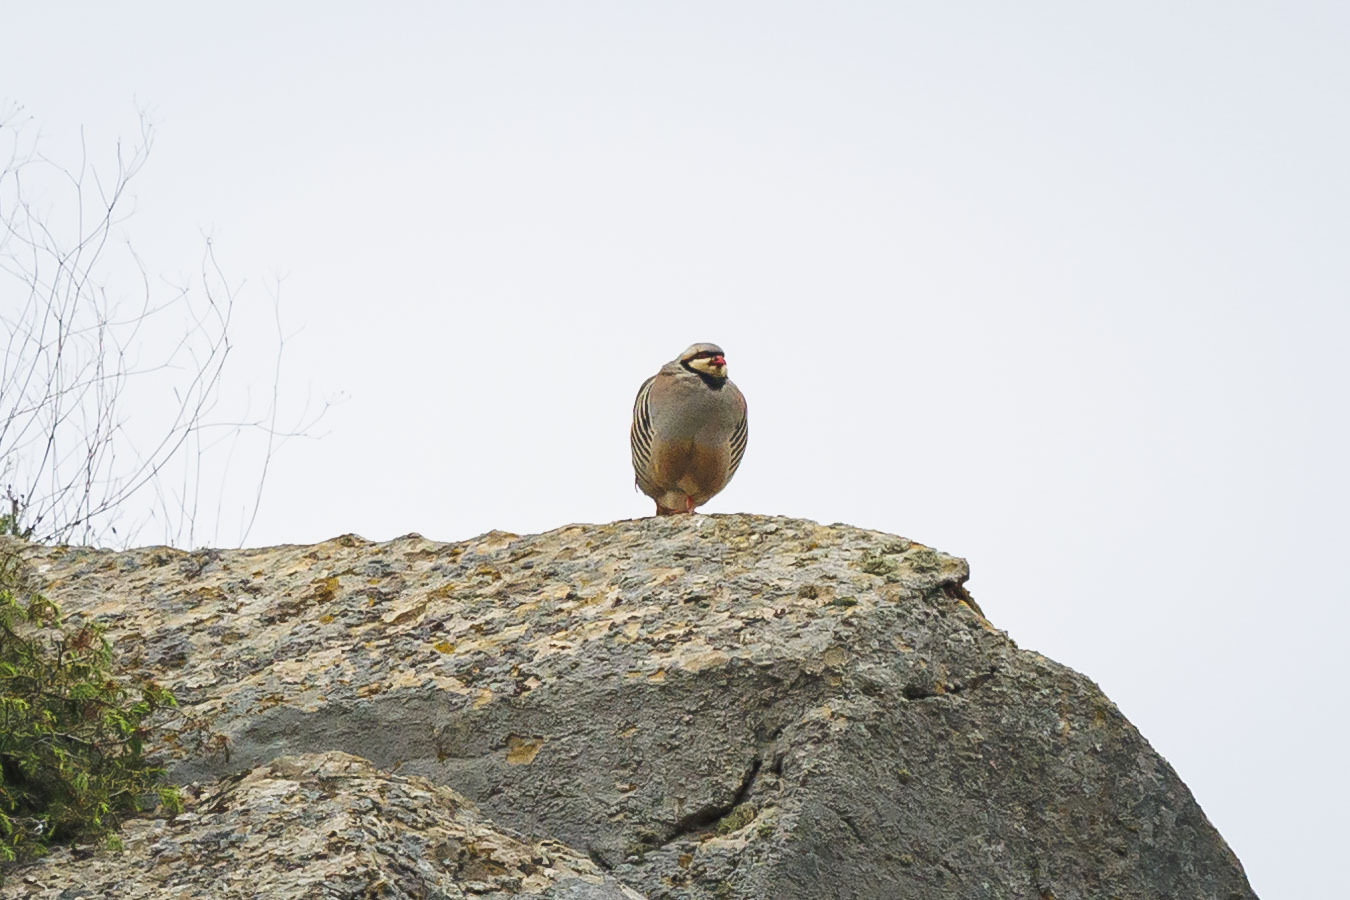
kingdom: Animalia
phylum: Chordata
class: Aves
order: Galliformes
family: Phasianidae
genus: Alectoris
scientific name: Alectoris chukar
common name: Chukar
